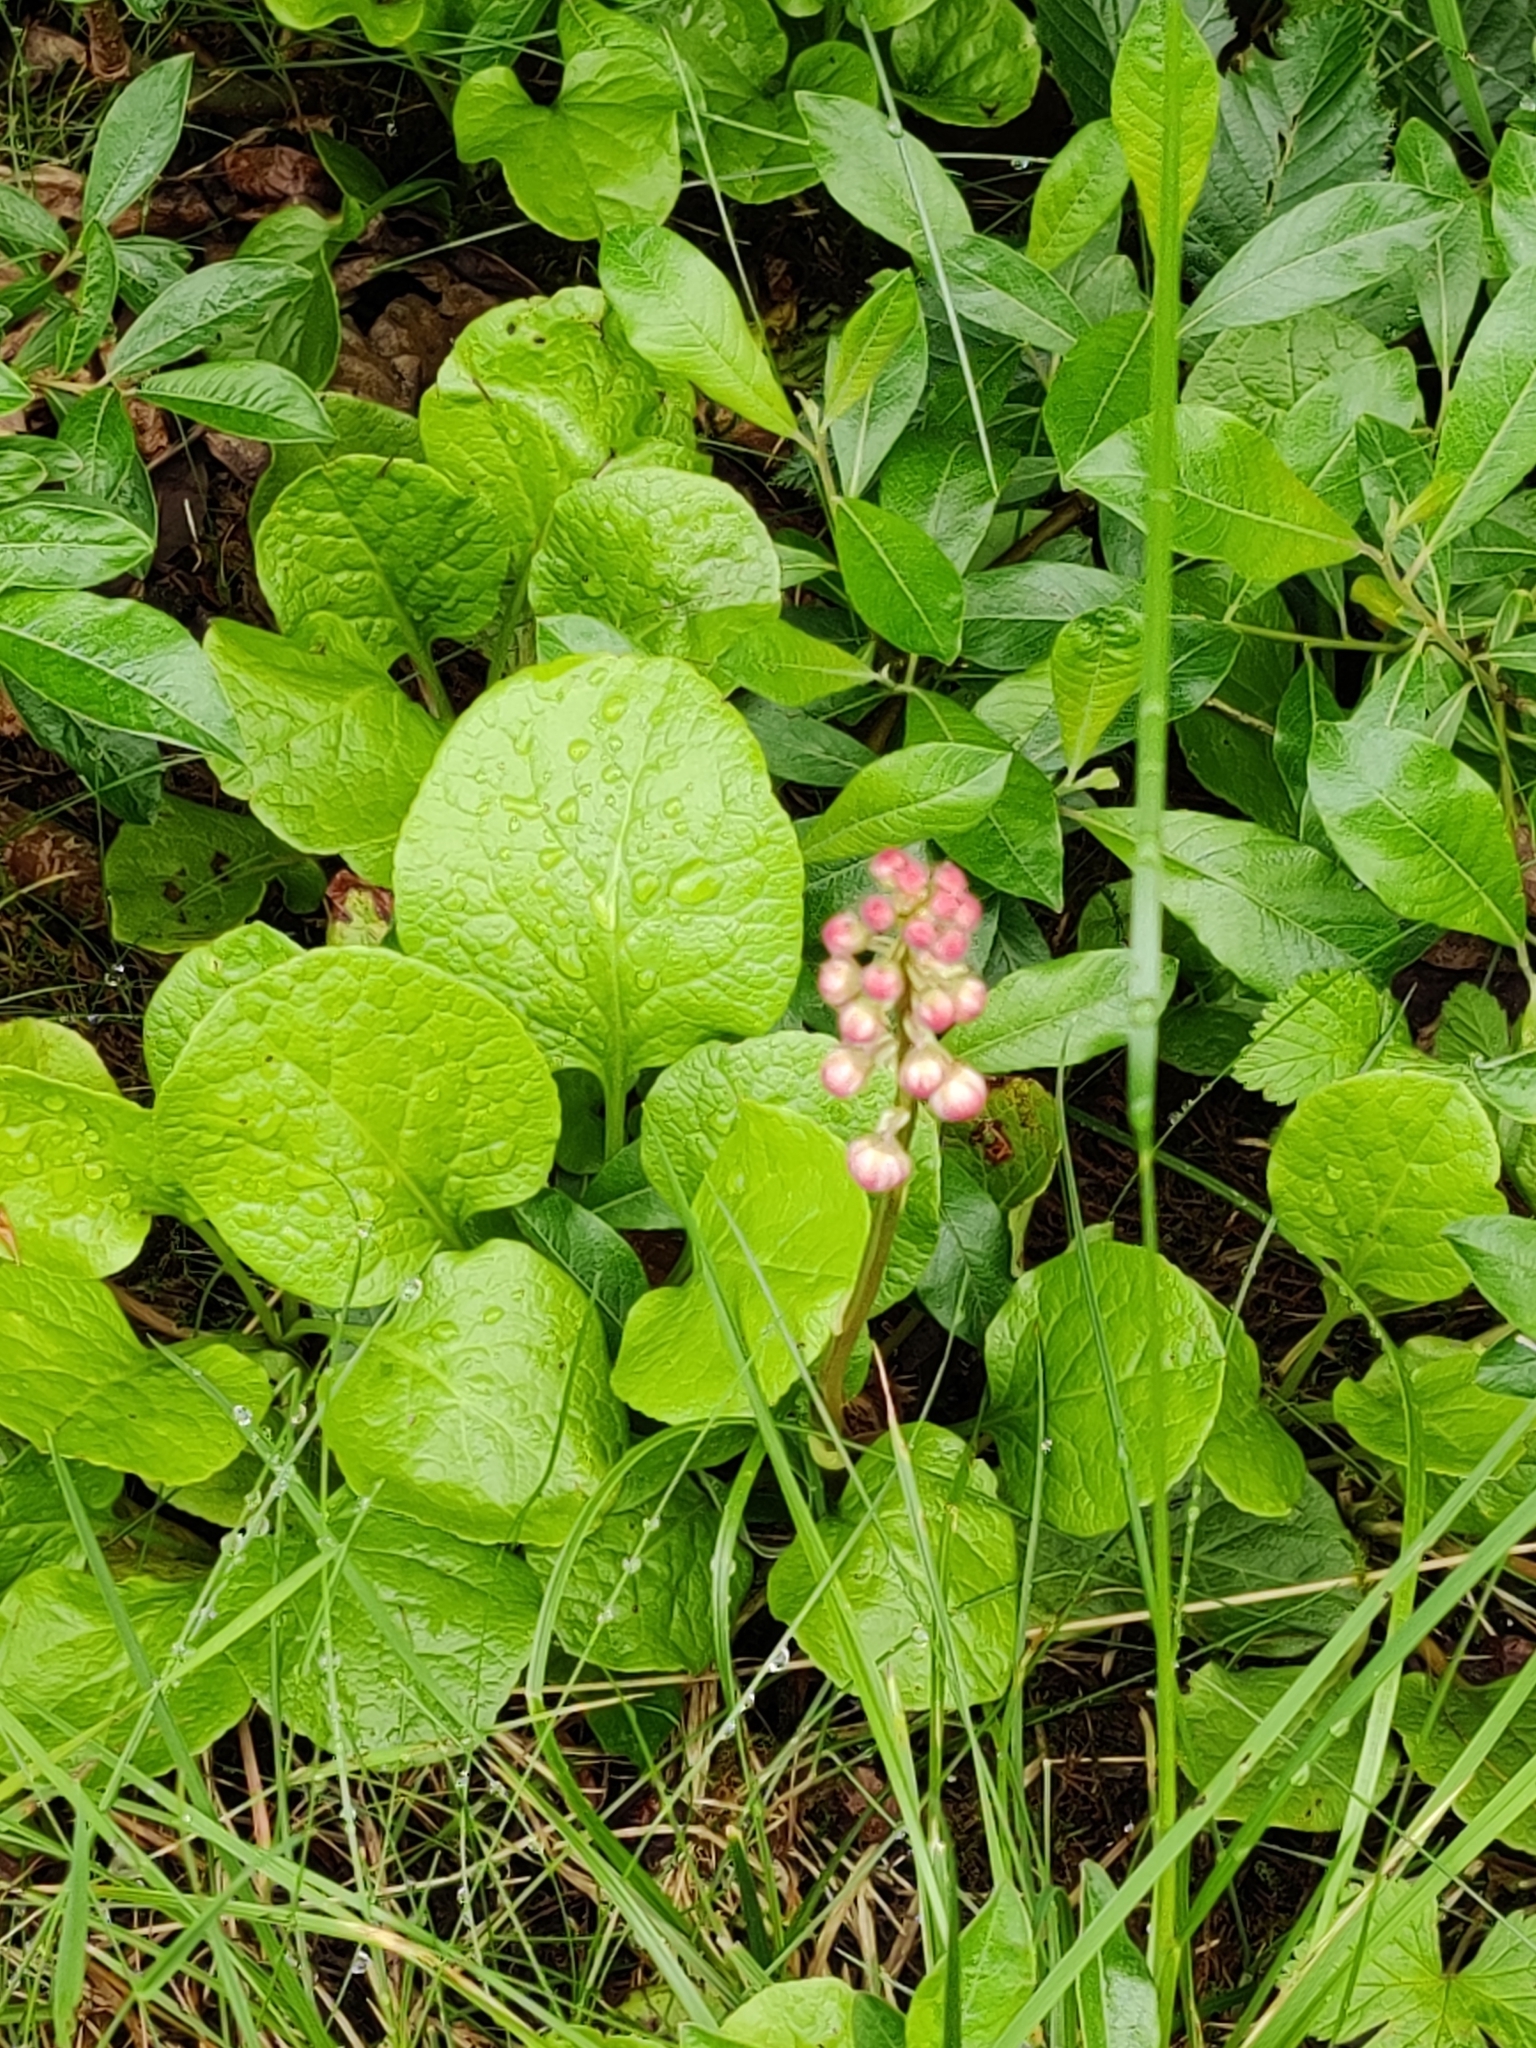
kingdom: Plantae
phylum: Tracheophyta
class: Magnoliopsida
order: Ericales
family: Ericaceae
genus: Pyrola
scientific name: Pyrola asarifolia
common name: Bog wintergreen
